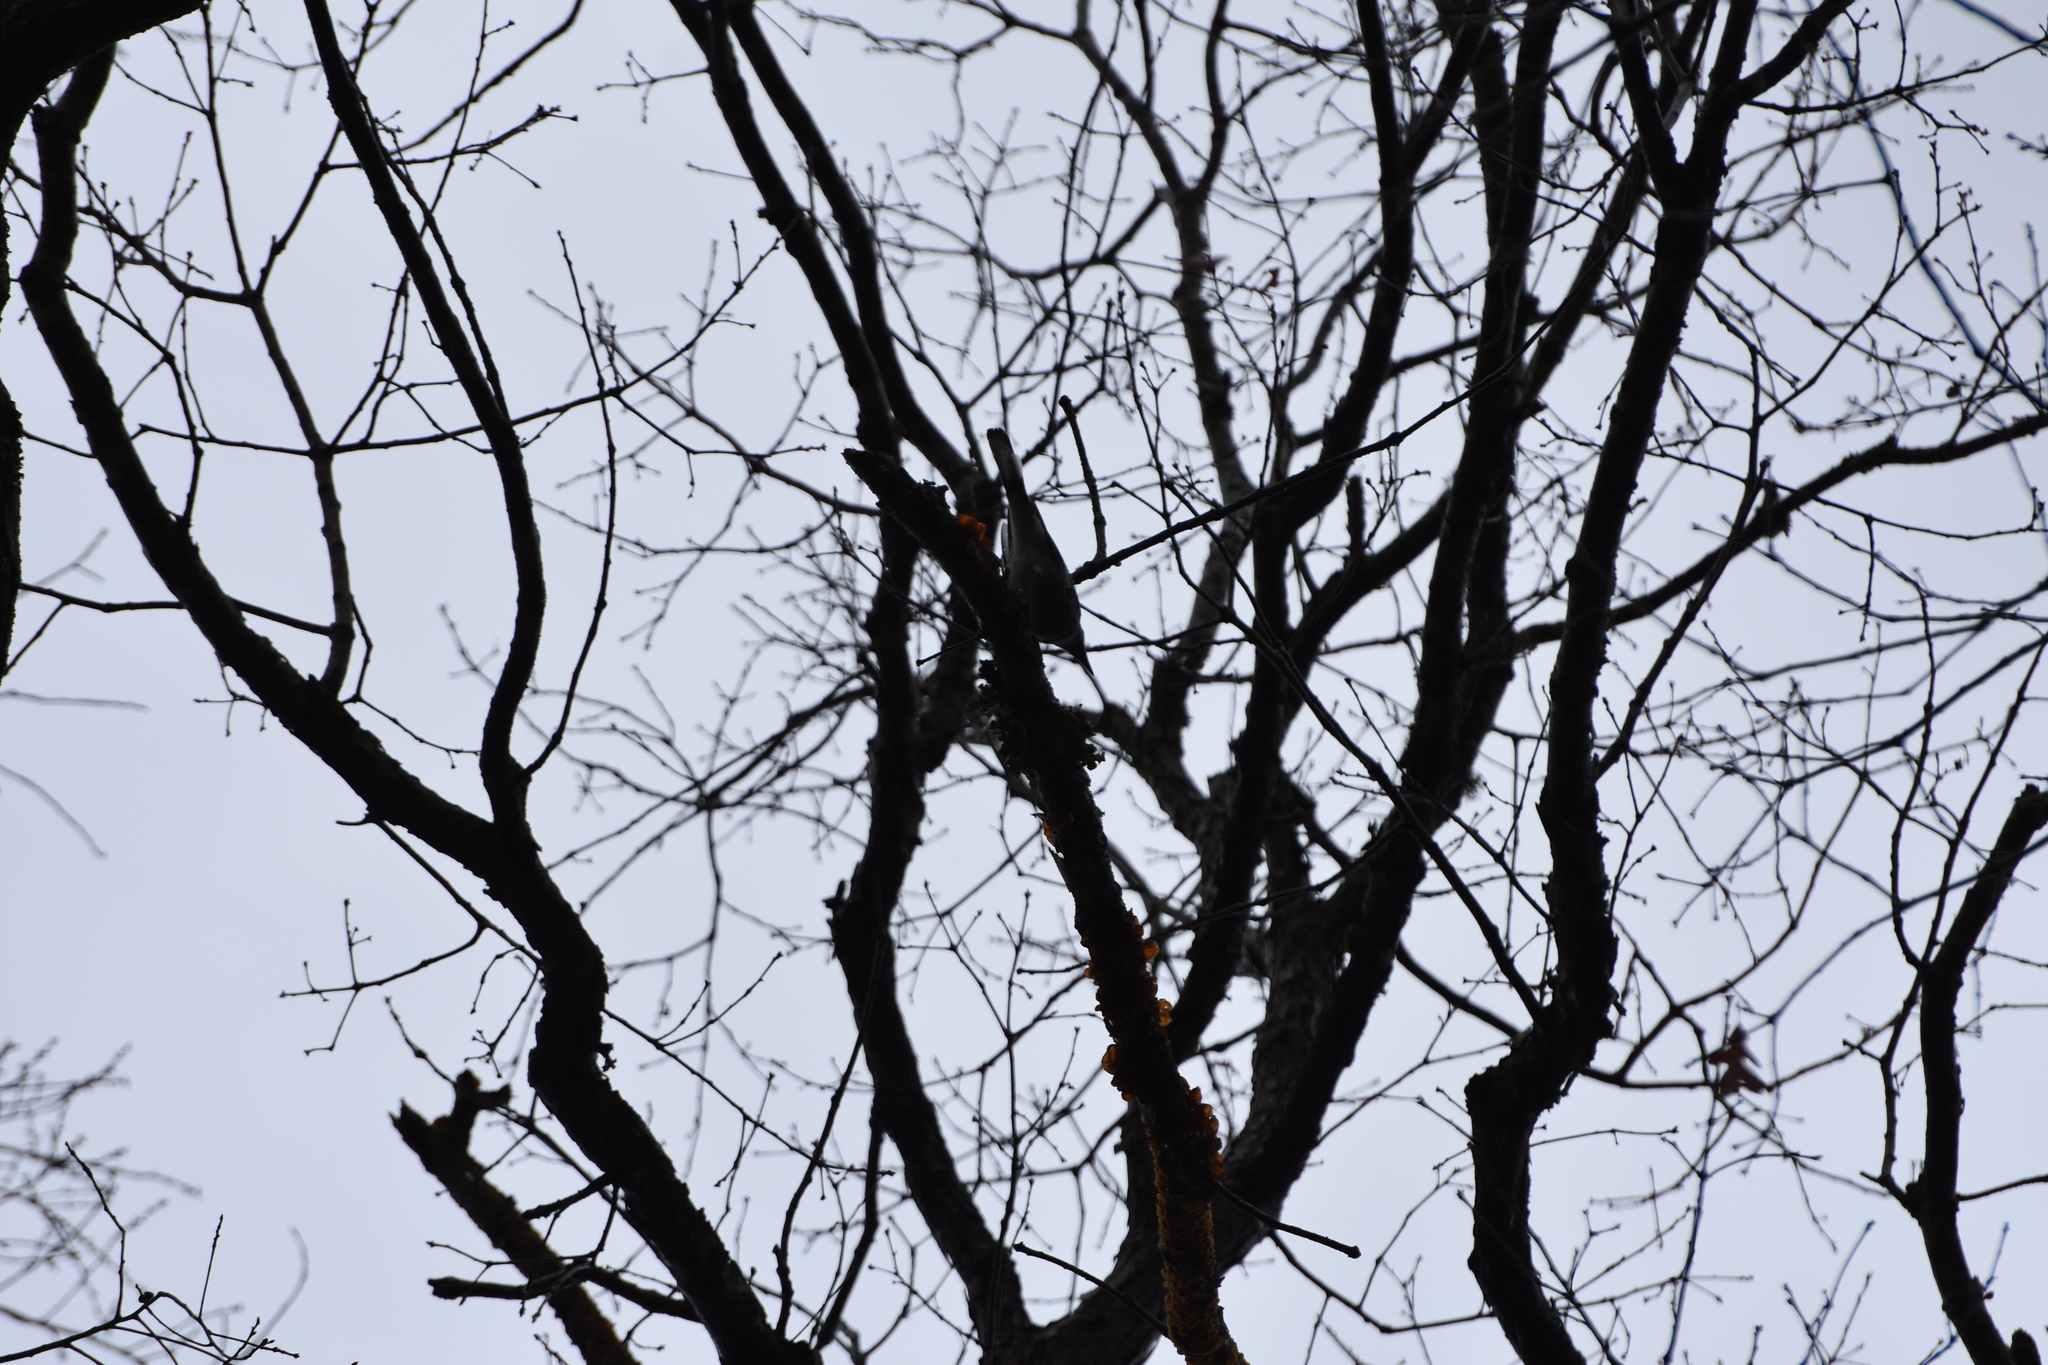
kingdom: Animalia
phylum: Chordata
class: Aves
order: Passeriformes
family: Corvidae
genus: Cyanocitta
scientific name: Cyanocitta cristata
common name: Blue jay
